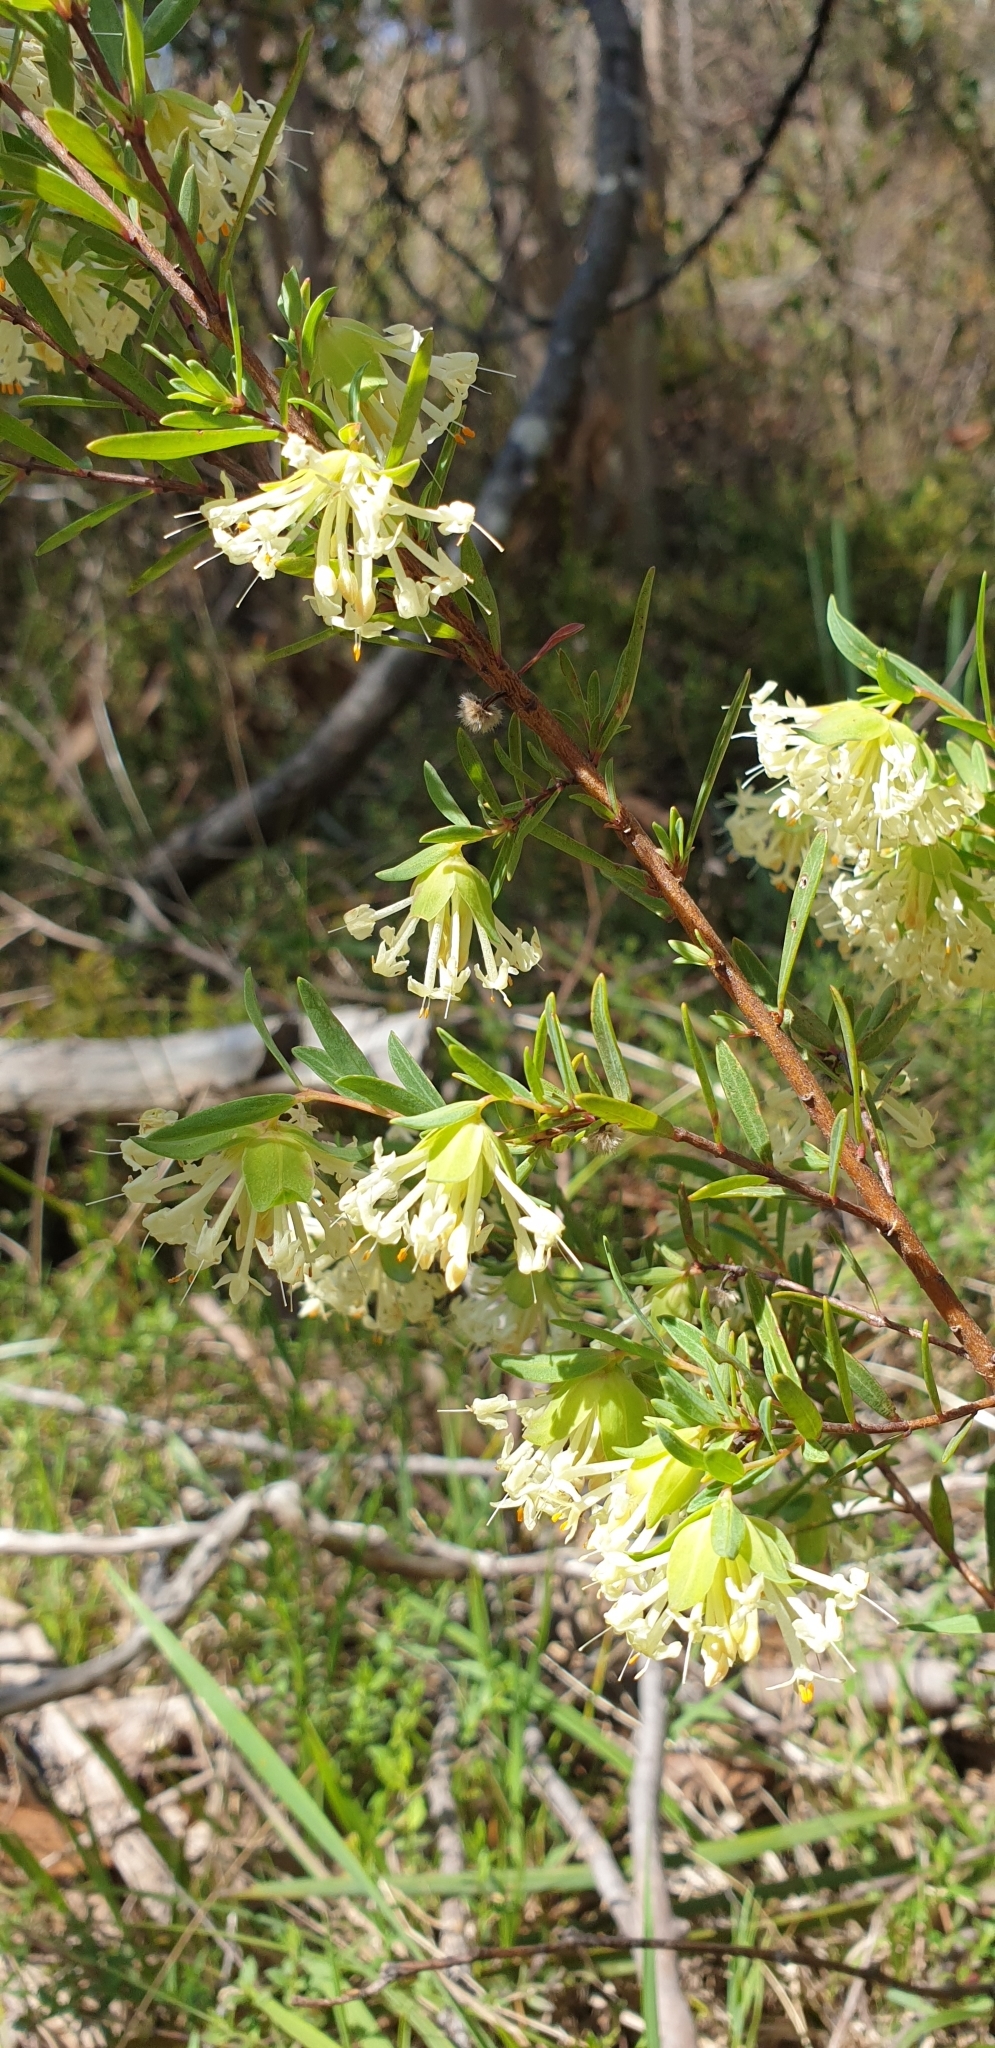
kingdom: Plantae
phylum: Tracheophyta
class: Magnoliopsida
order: Malvales
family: Thymelaeaceae
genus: Pimelea
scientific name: Pimelea linifolia
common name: Queen-of-the-bush
